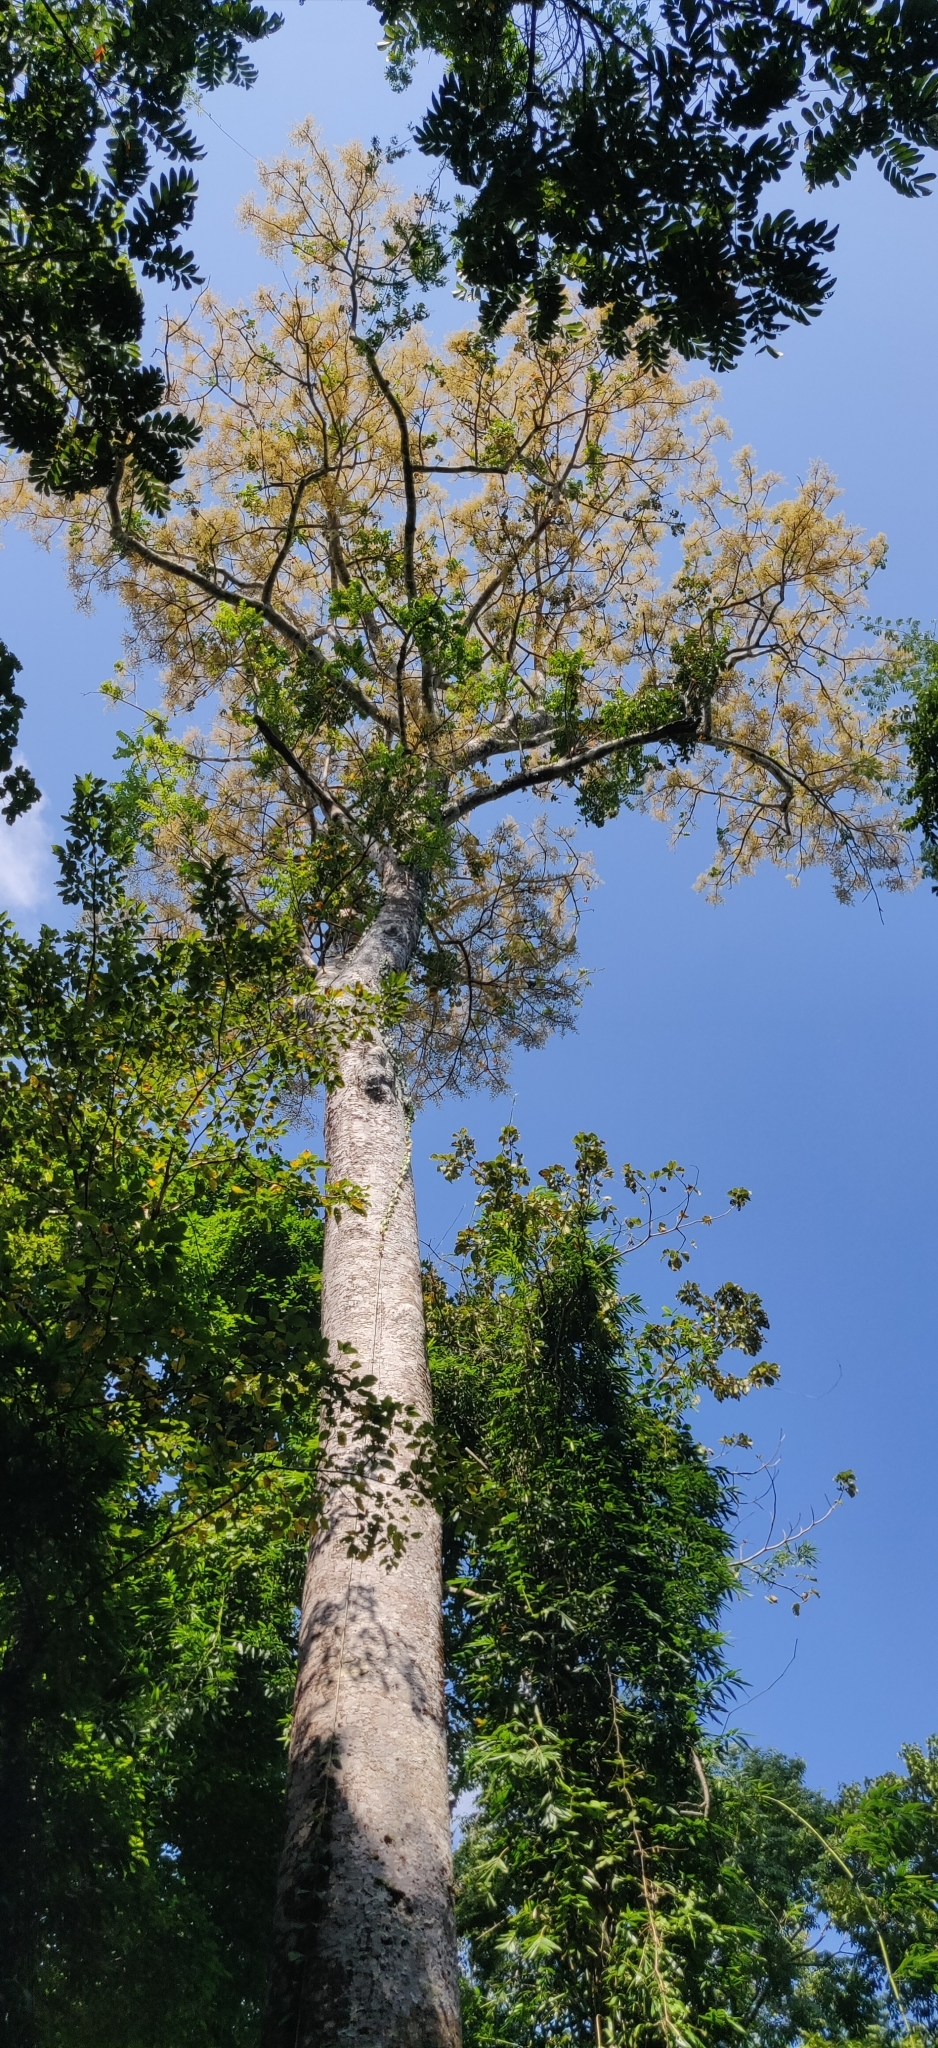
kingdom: Plantae
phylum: Tracheophyta
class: Magnoliopsida
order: Sapindales
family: Anacardiaceae
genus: Dracontomelon
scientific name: Dracontomelon dao
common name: Argus pheasant-tree
